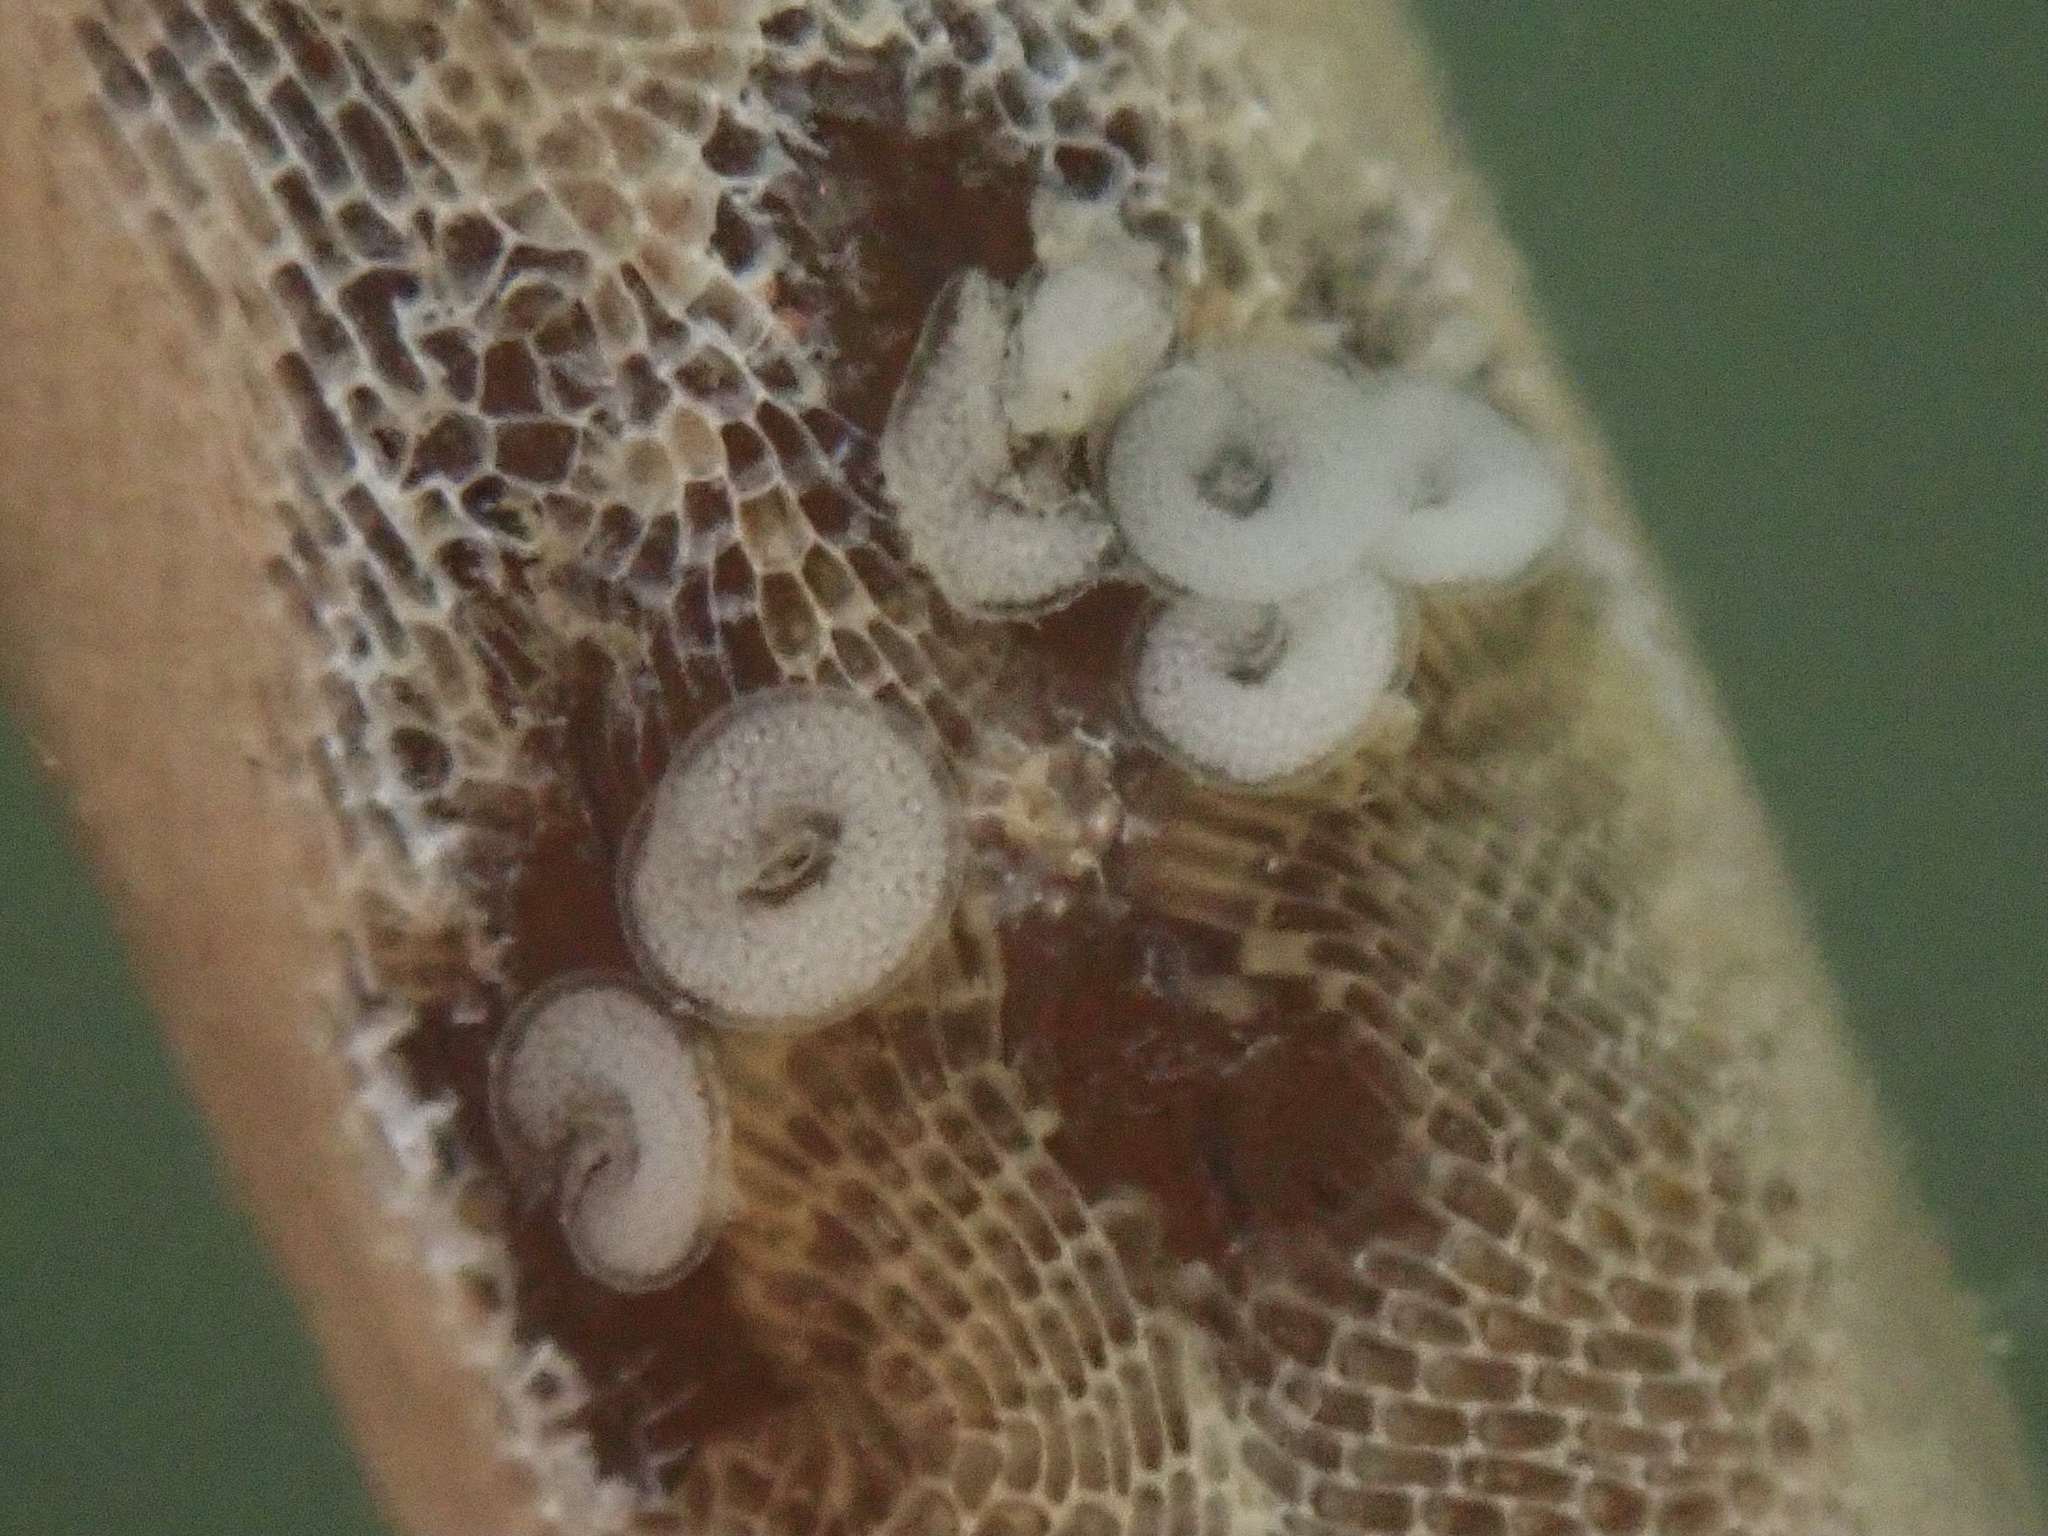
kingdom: Animalia
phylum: Mollusca
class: Gastropoda
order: Nudibranchia
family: Corambidae
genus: Corambe
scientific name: Corambe steinbergae
